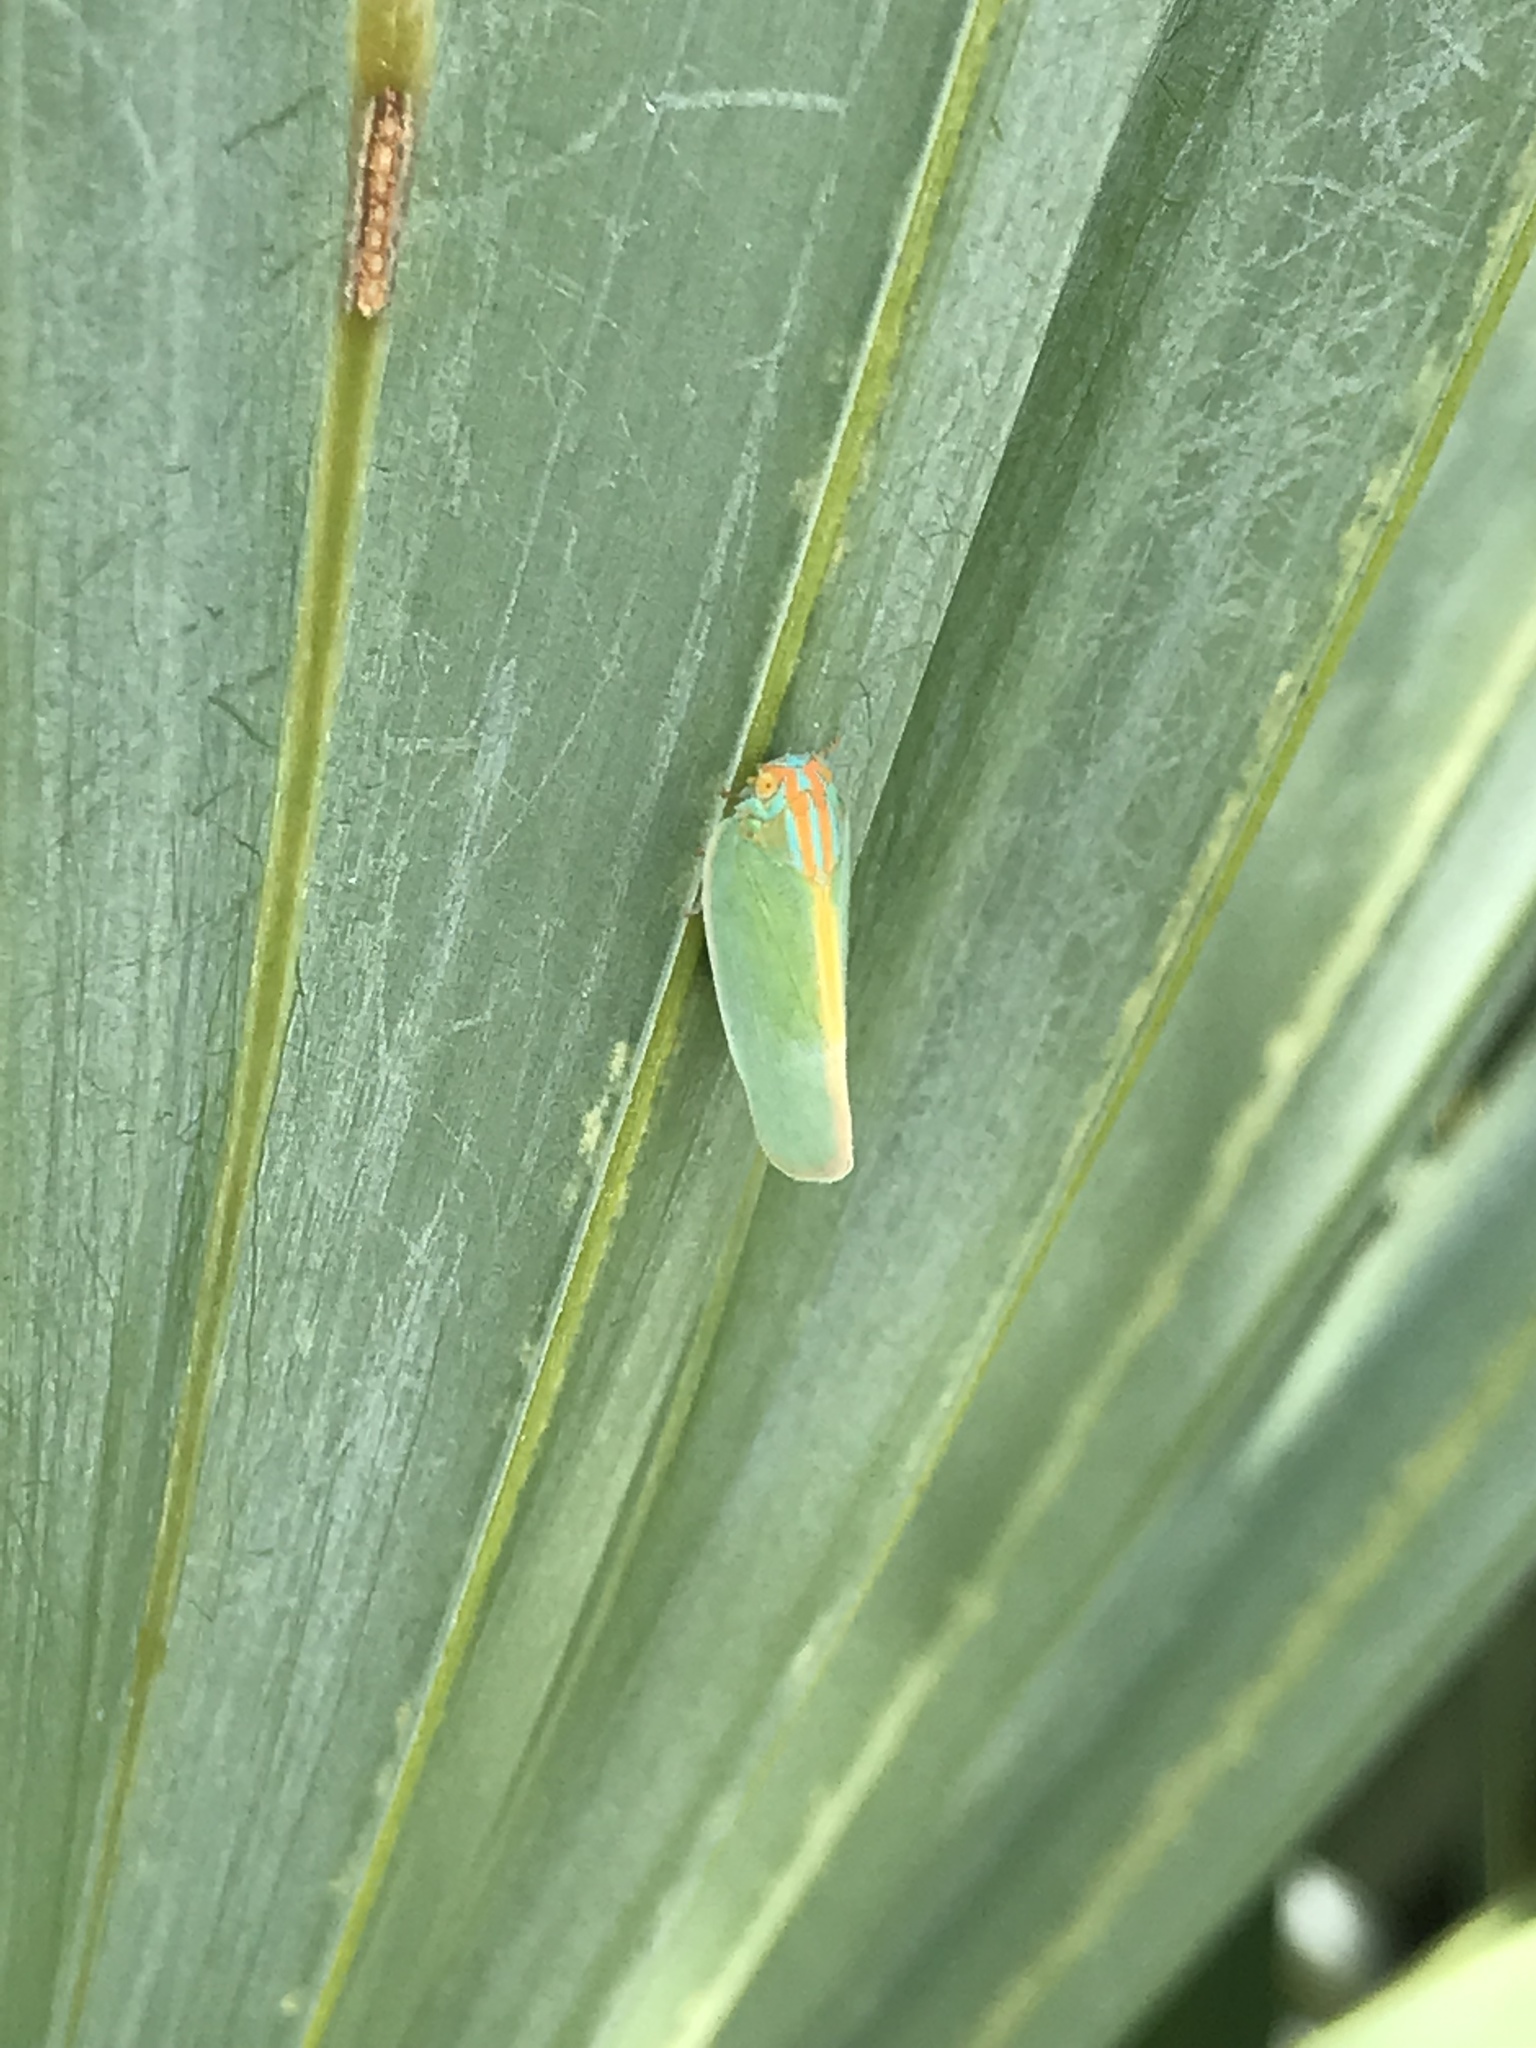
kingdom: Animalia
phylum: Arthropoda
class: Insecta
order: Hemiptera
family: Flatidae
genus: Ormenaria
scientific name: Ormenaria rufifascia
